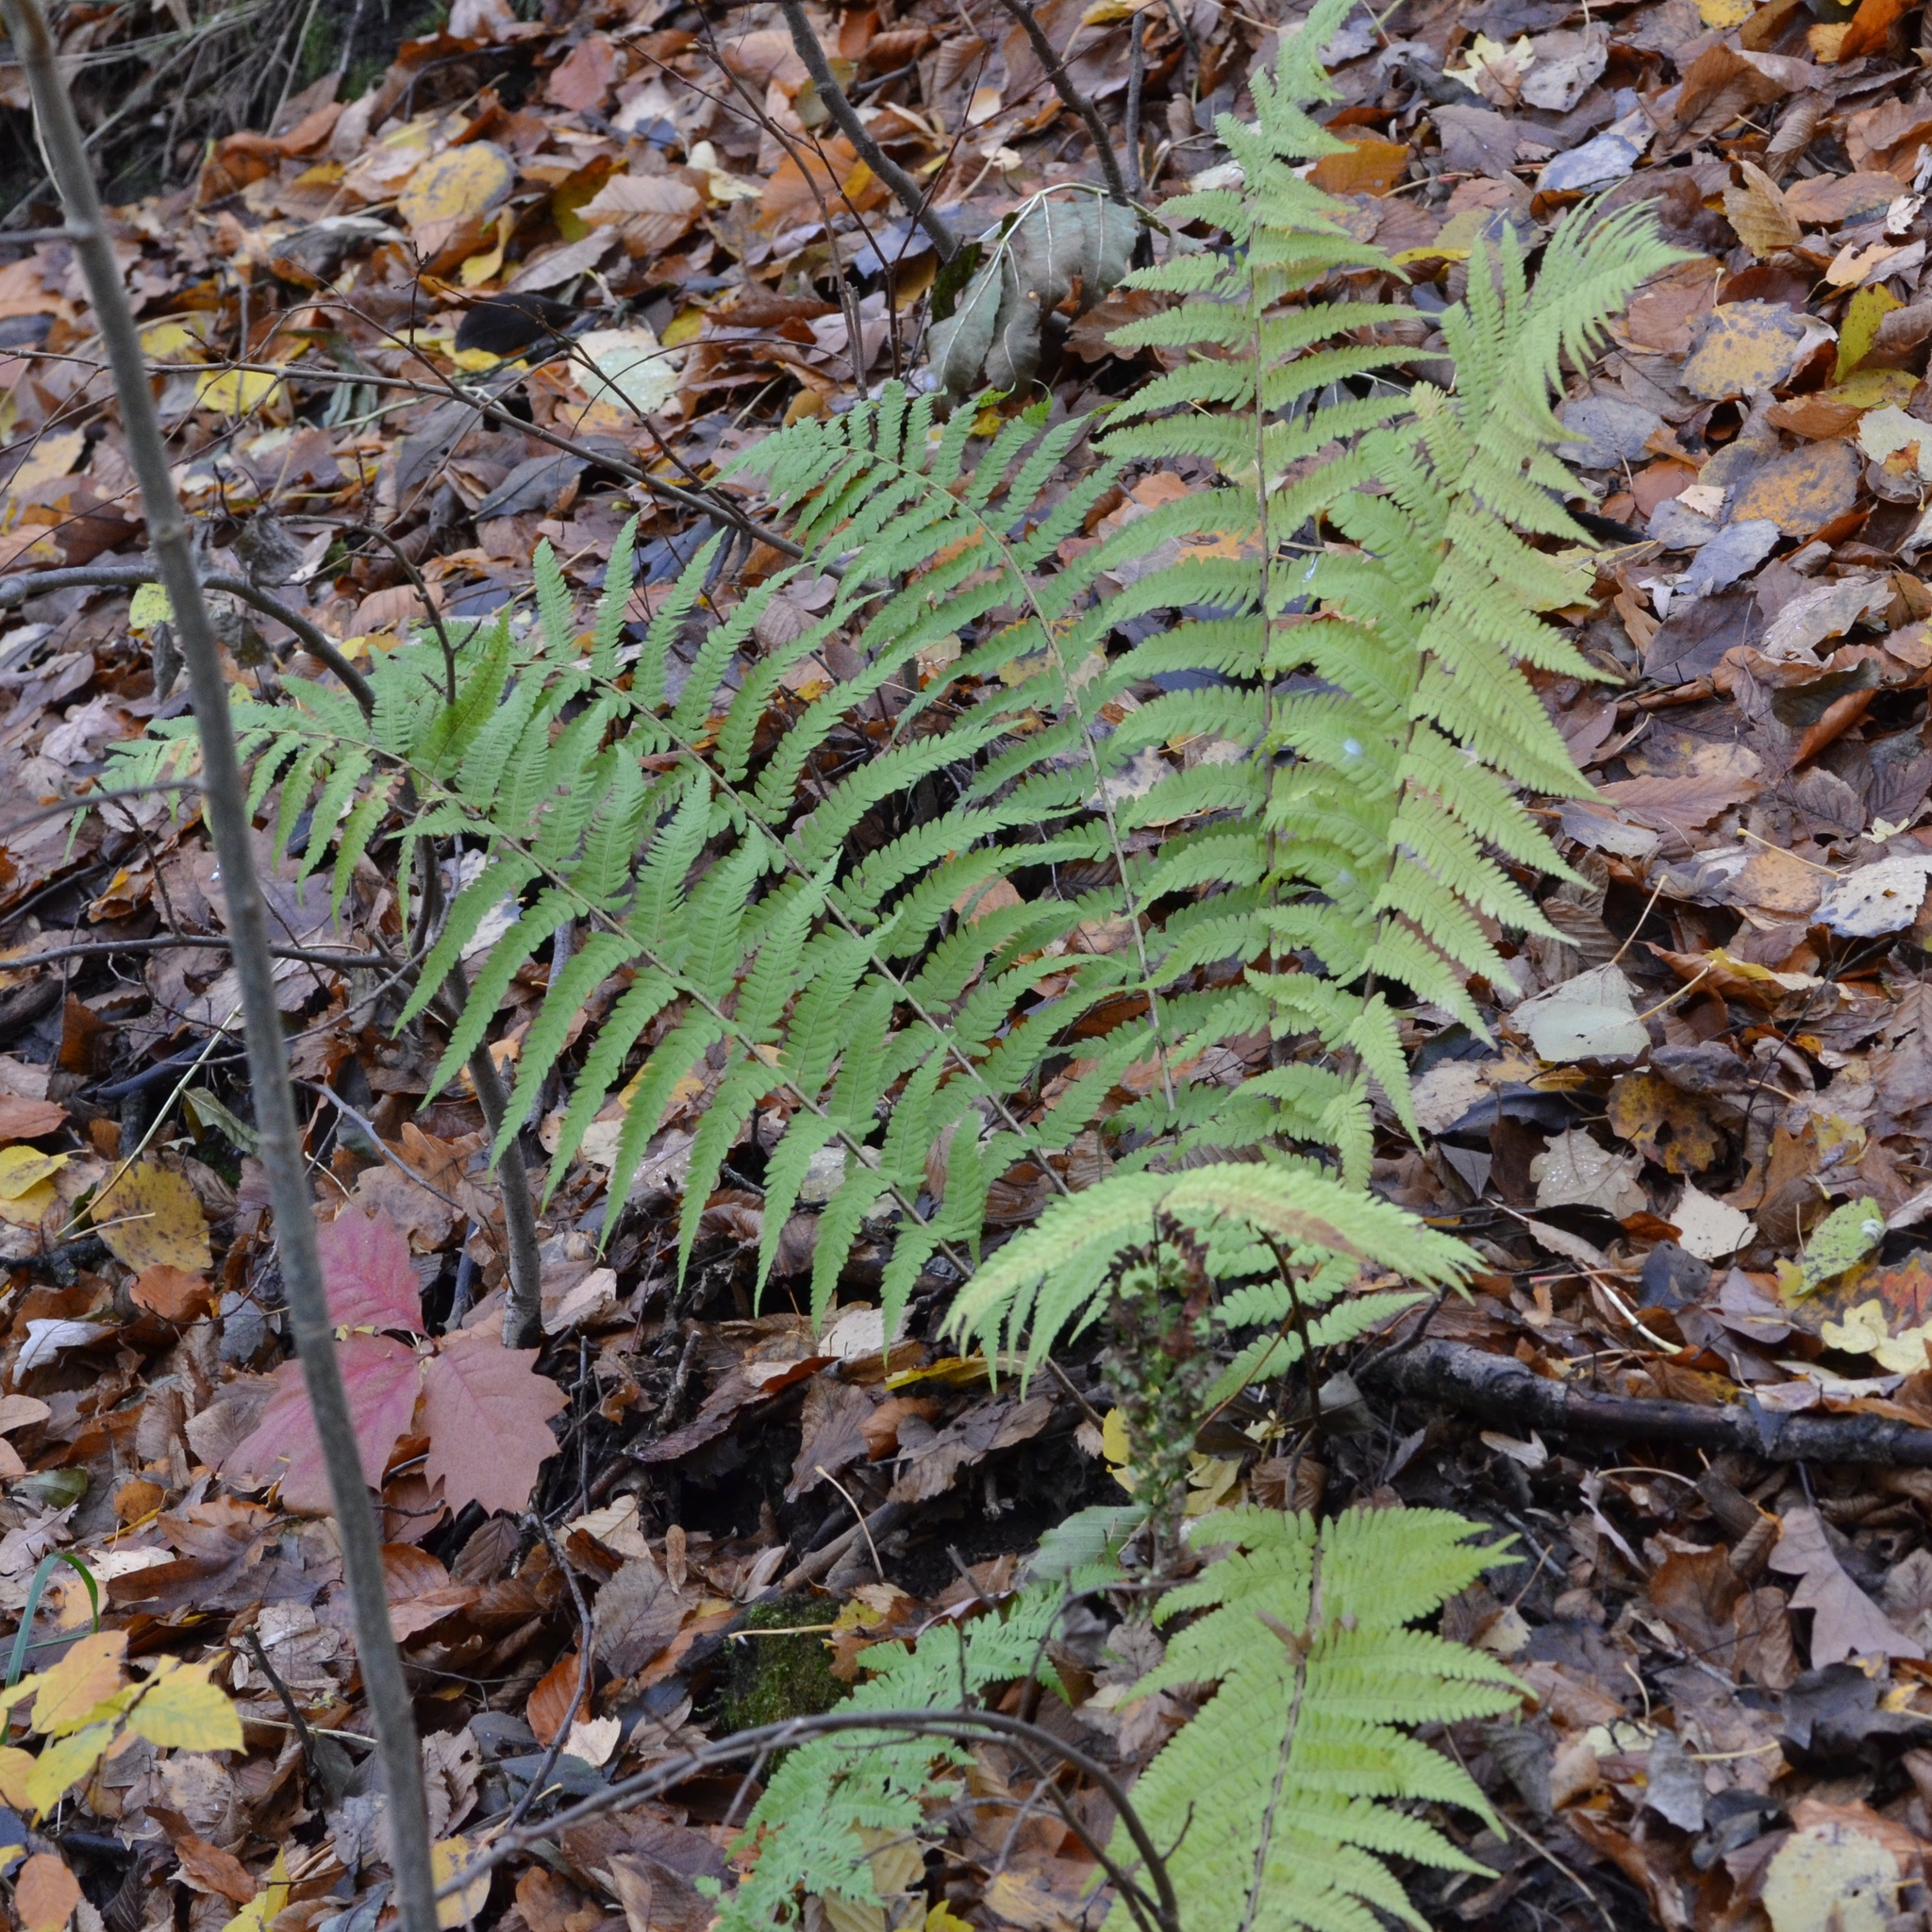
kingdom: Plantae
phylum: Tracheophyta
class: Polypodiopsida
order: Polypodiales
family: Dryopteridaceae
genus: Dryopteris
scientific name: Dryopteris filix-mas
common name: Male fern
